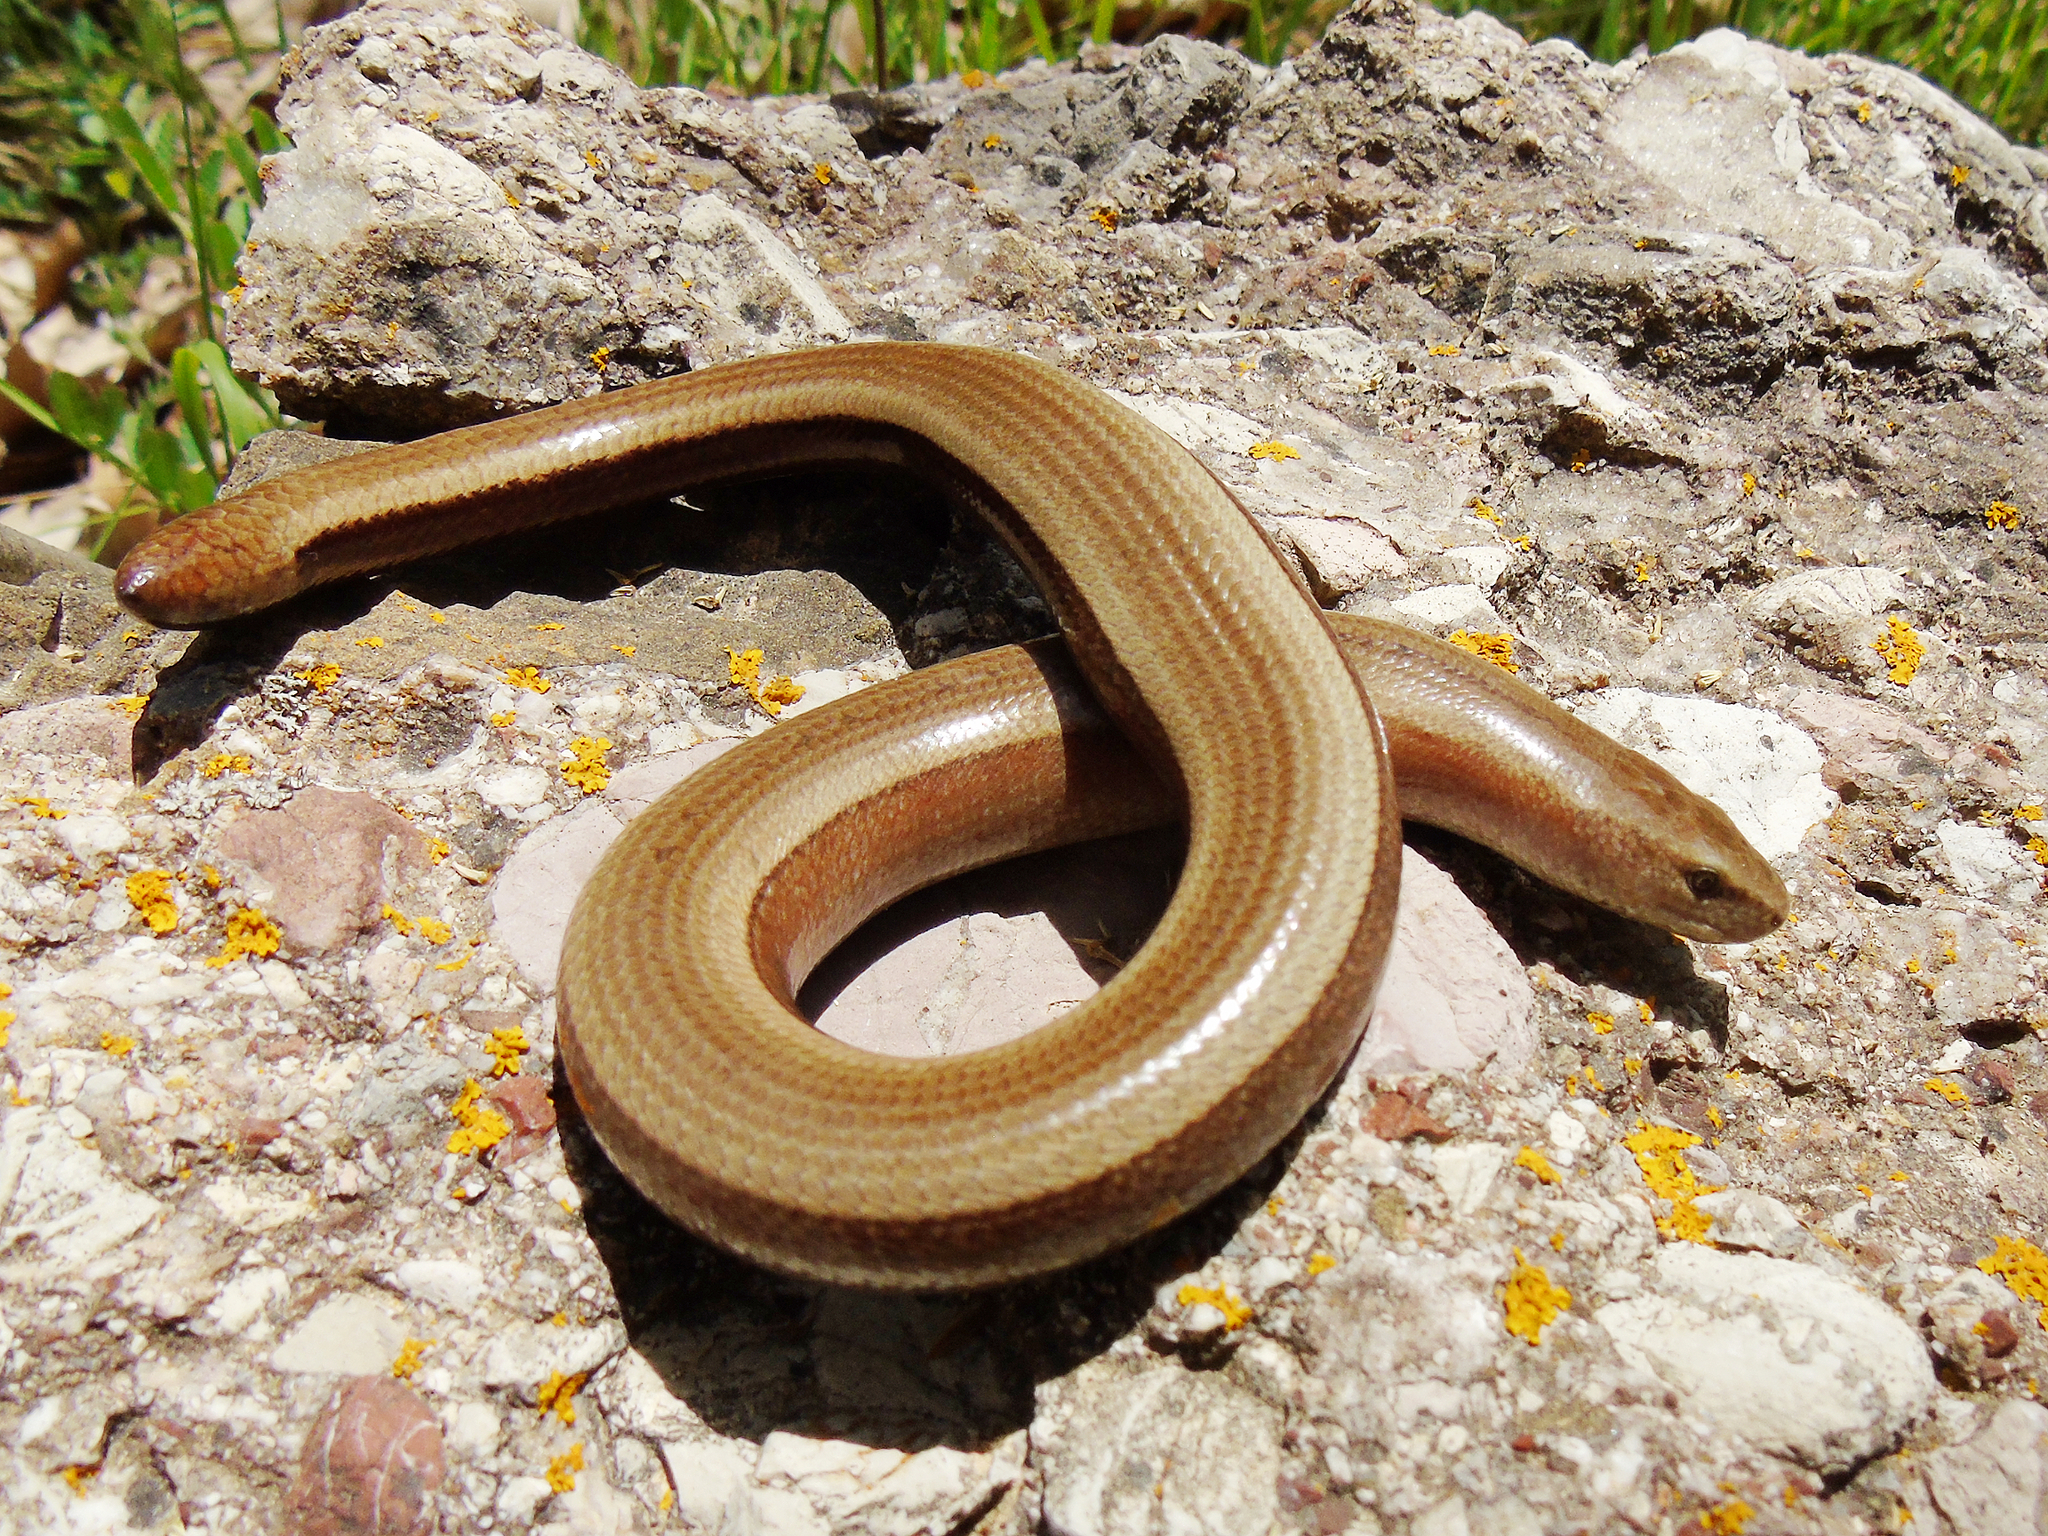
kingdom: Animalia
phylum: Chordata
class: Squamata
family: Anguidae
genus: Anguis
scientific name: Anguis graeca
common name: Greek slow worm
